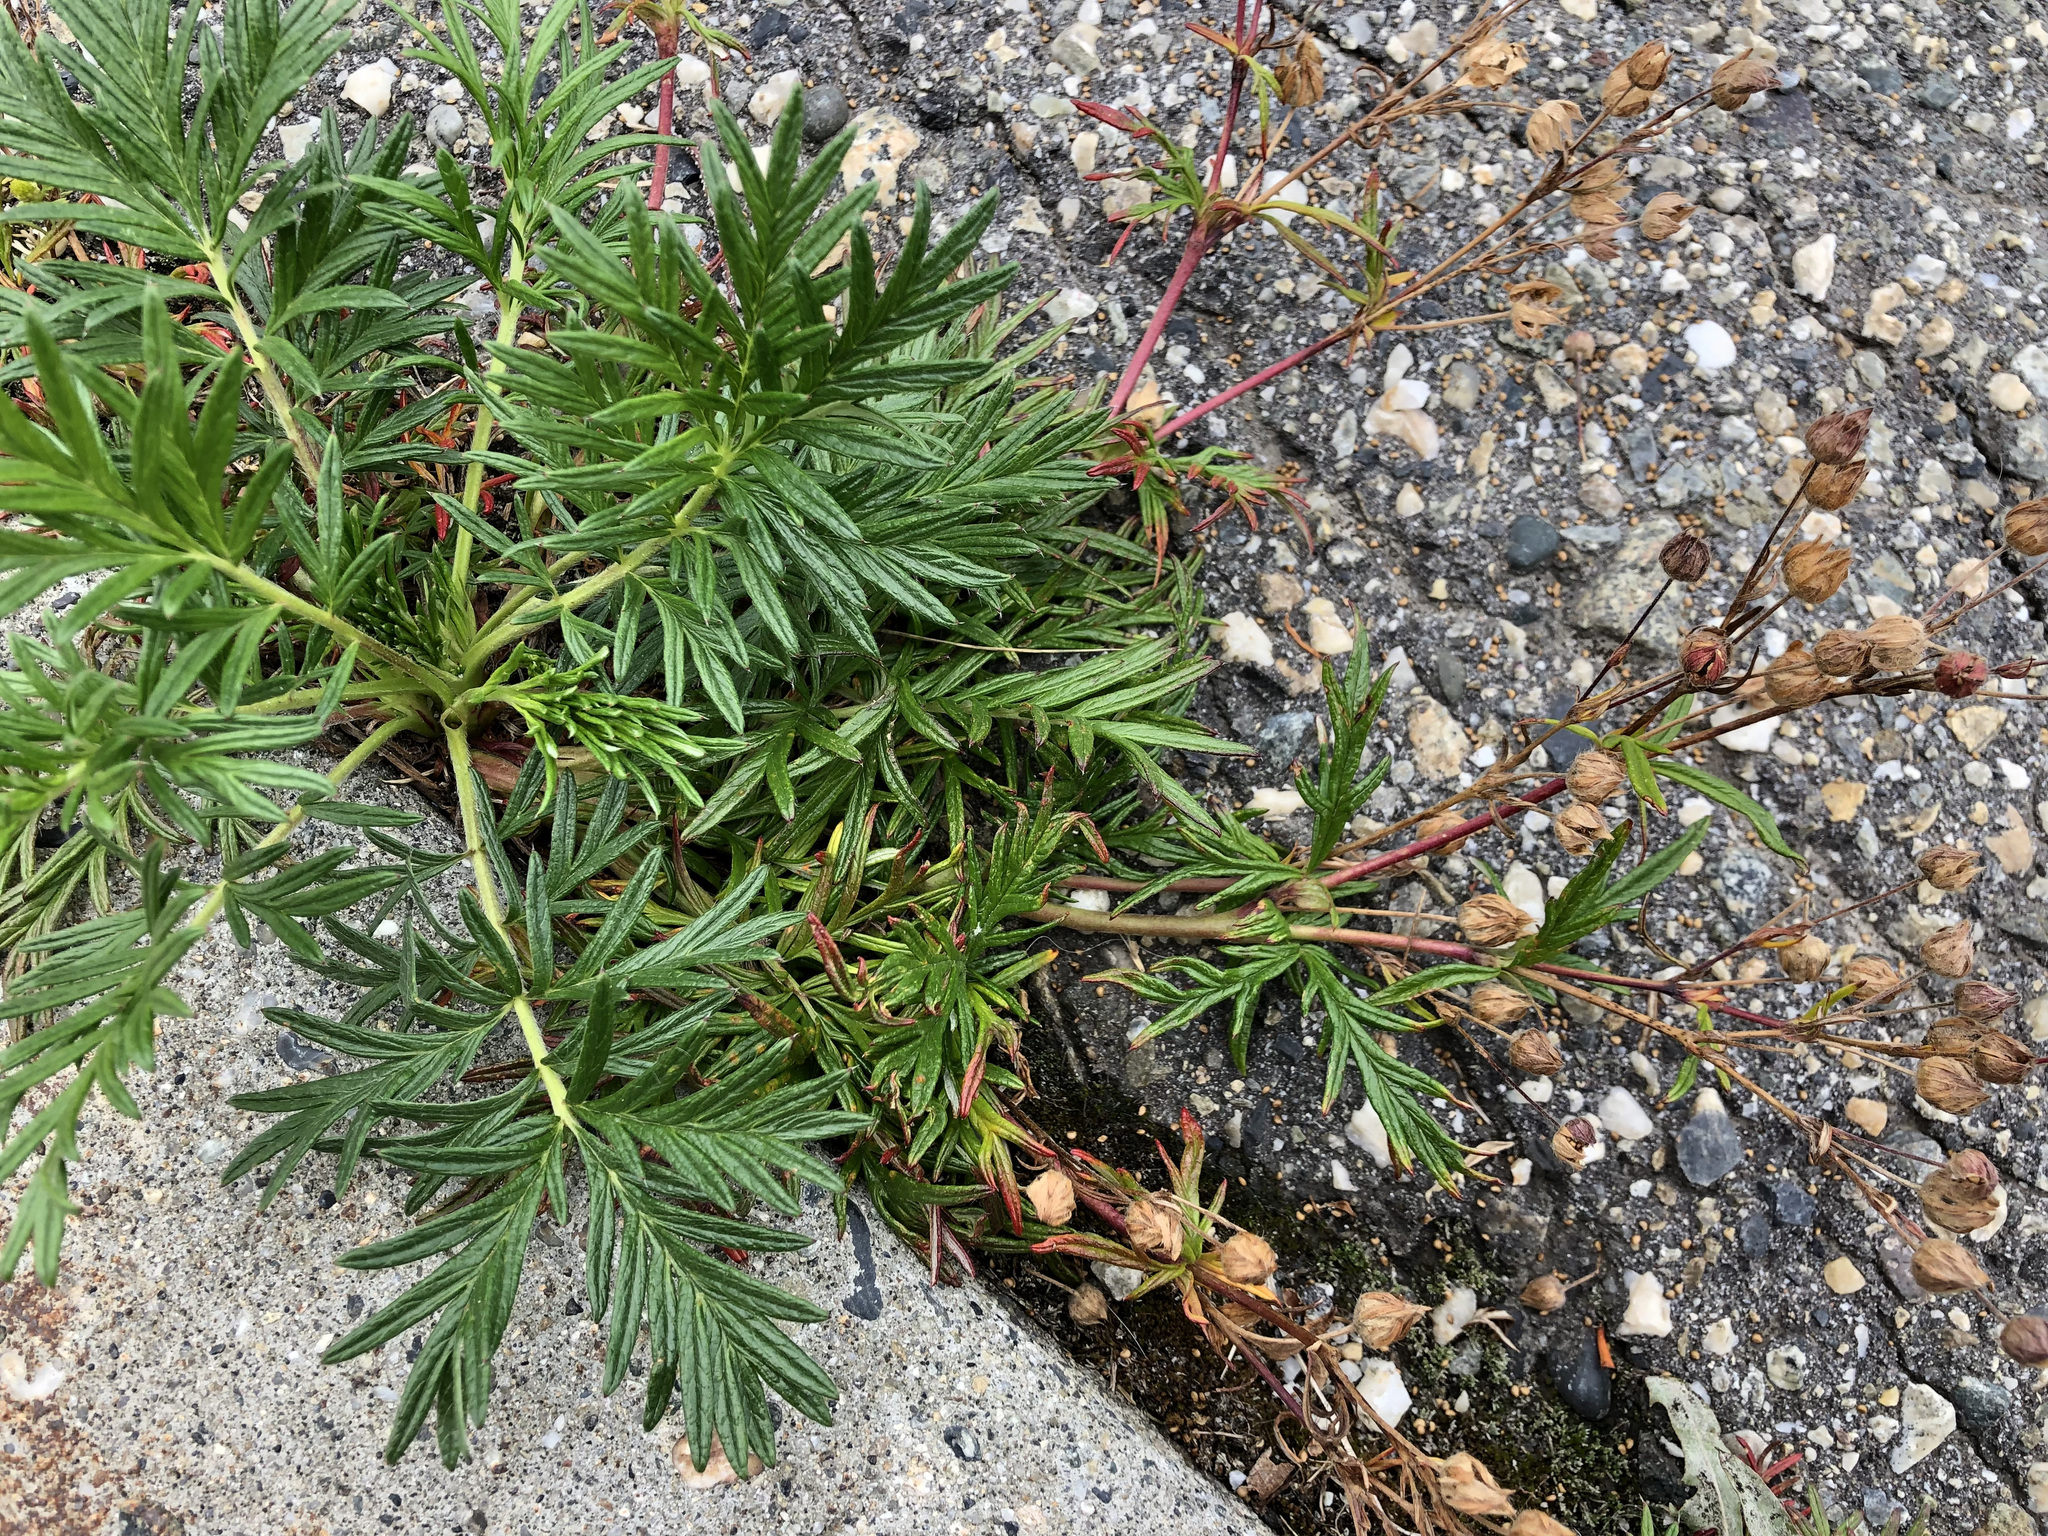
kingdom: Plantae
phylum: Tracheophyta
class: Magnoliopsida
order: Rosales
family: Rosaceae
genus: Potentilla
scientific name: Potentilla bimundorum
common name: Cut-leaved cinquefoil
